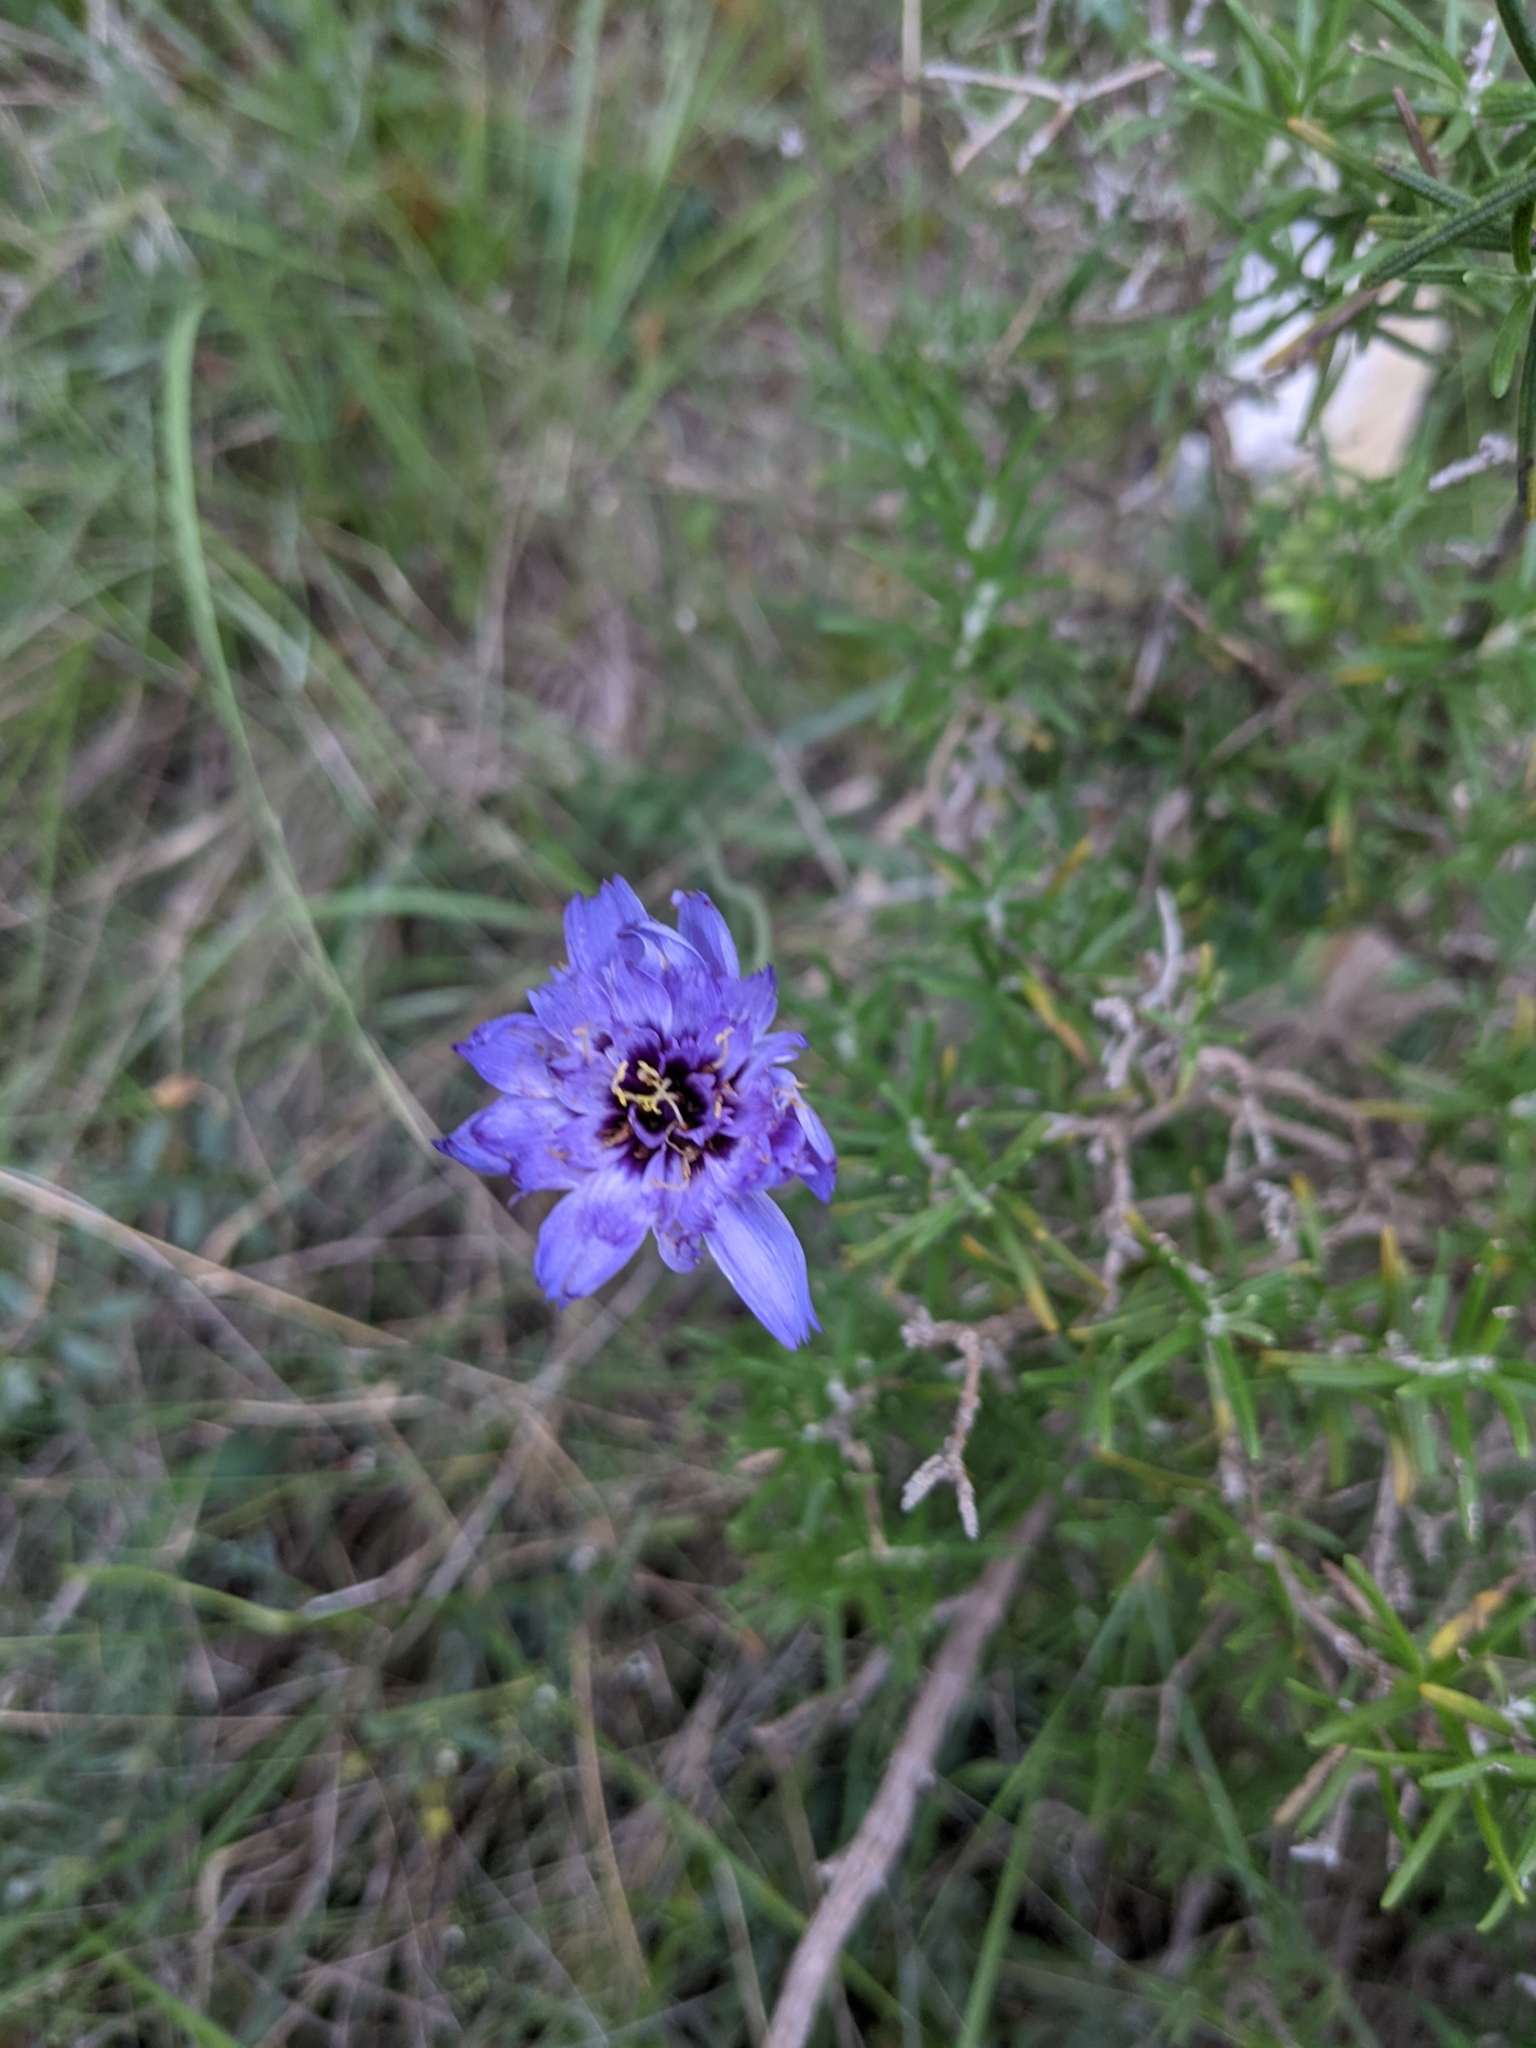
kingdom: Plantae
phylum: Tracheophyta
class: Magnoliopsida
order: Asterales
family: Asteraceae
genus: Catananche
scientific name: Catananche caerulea
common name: Blue cupidone
